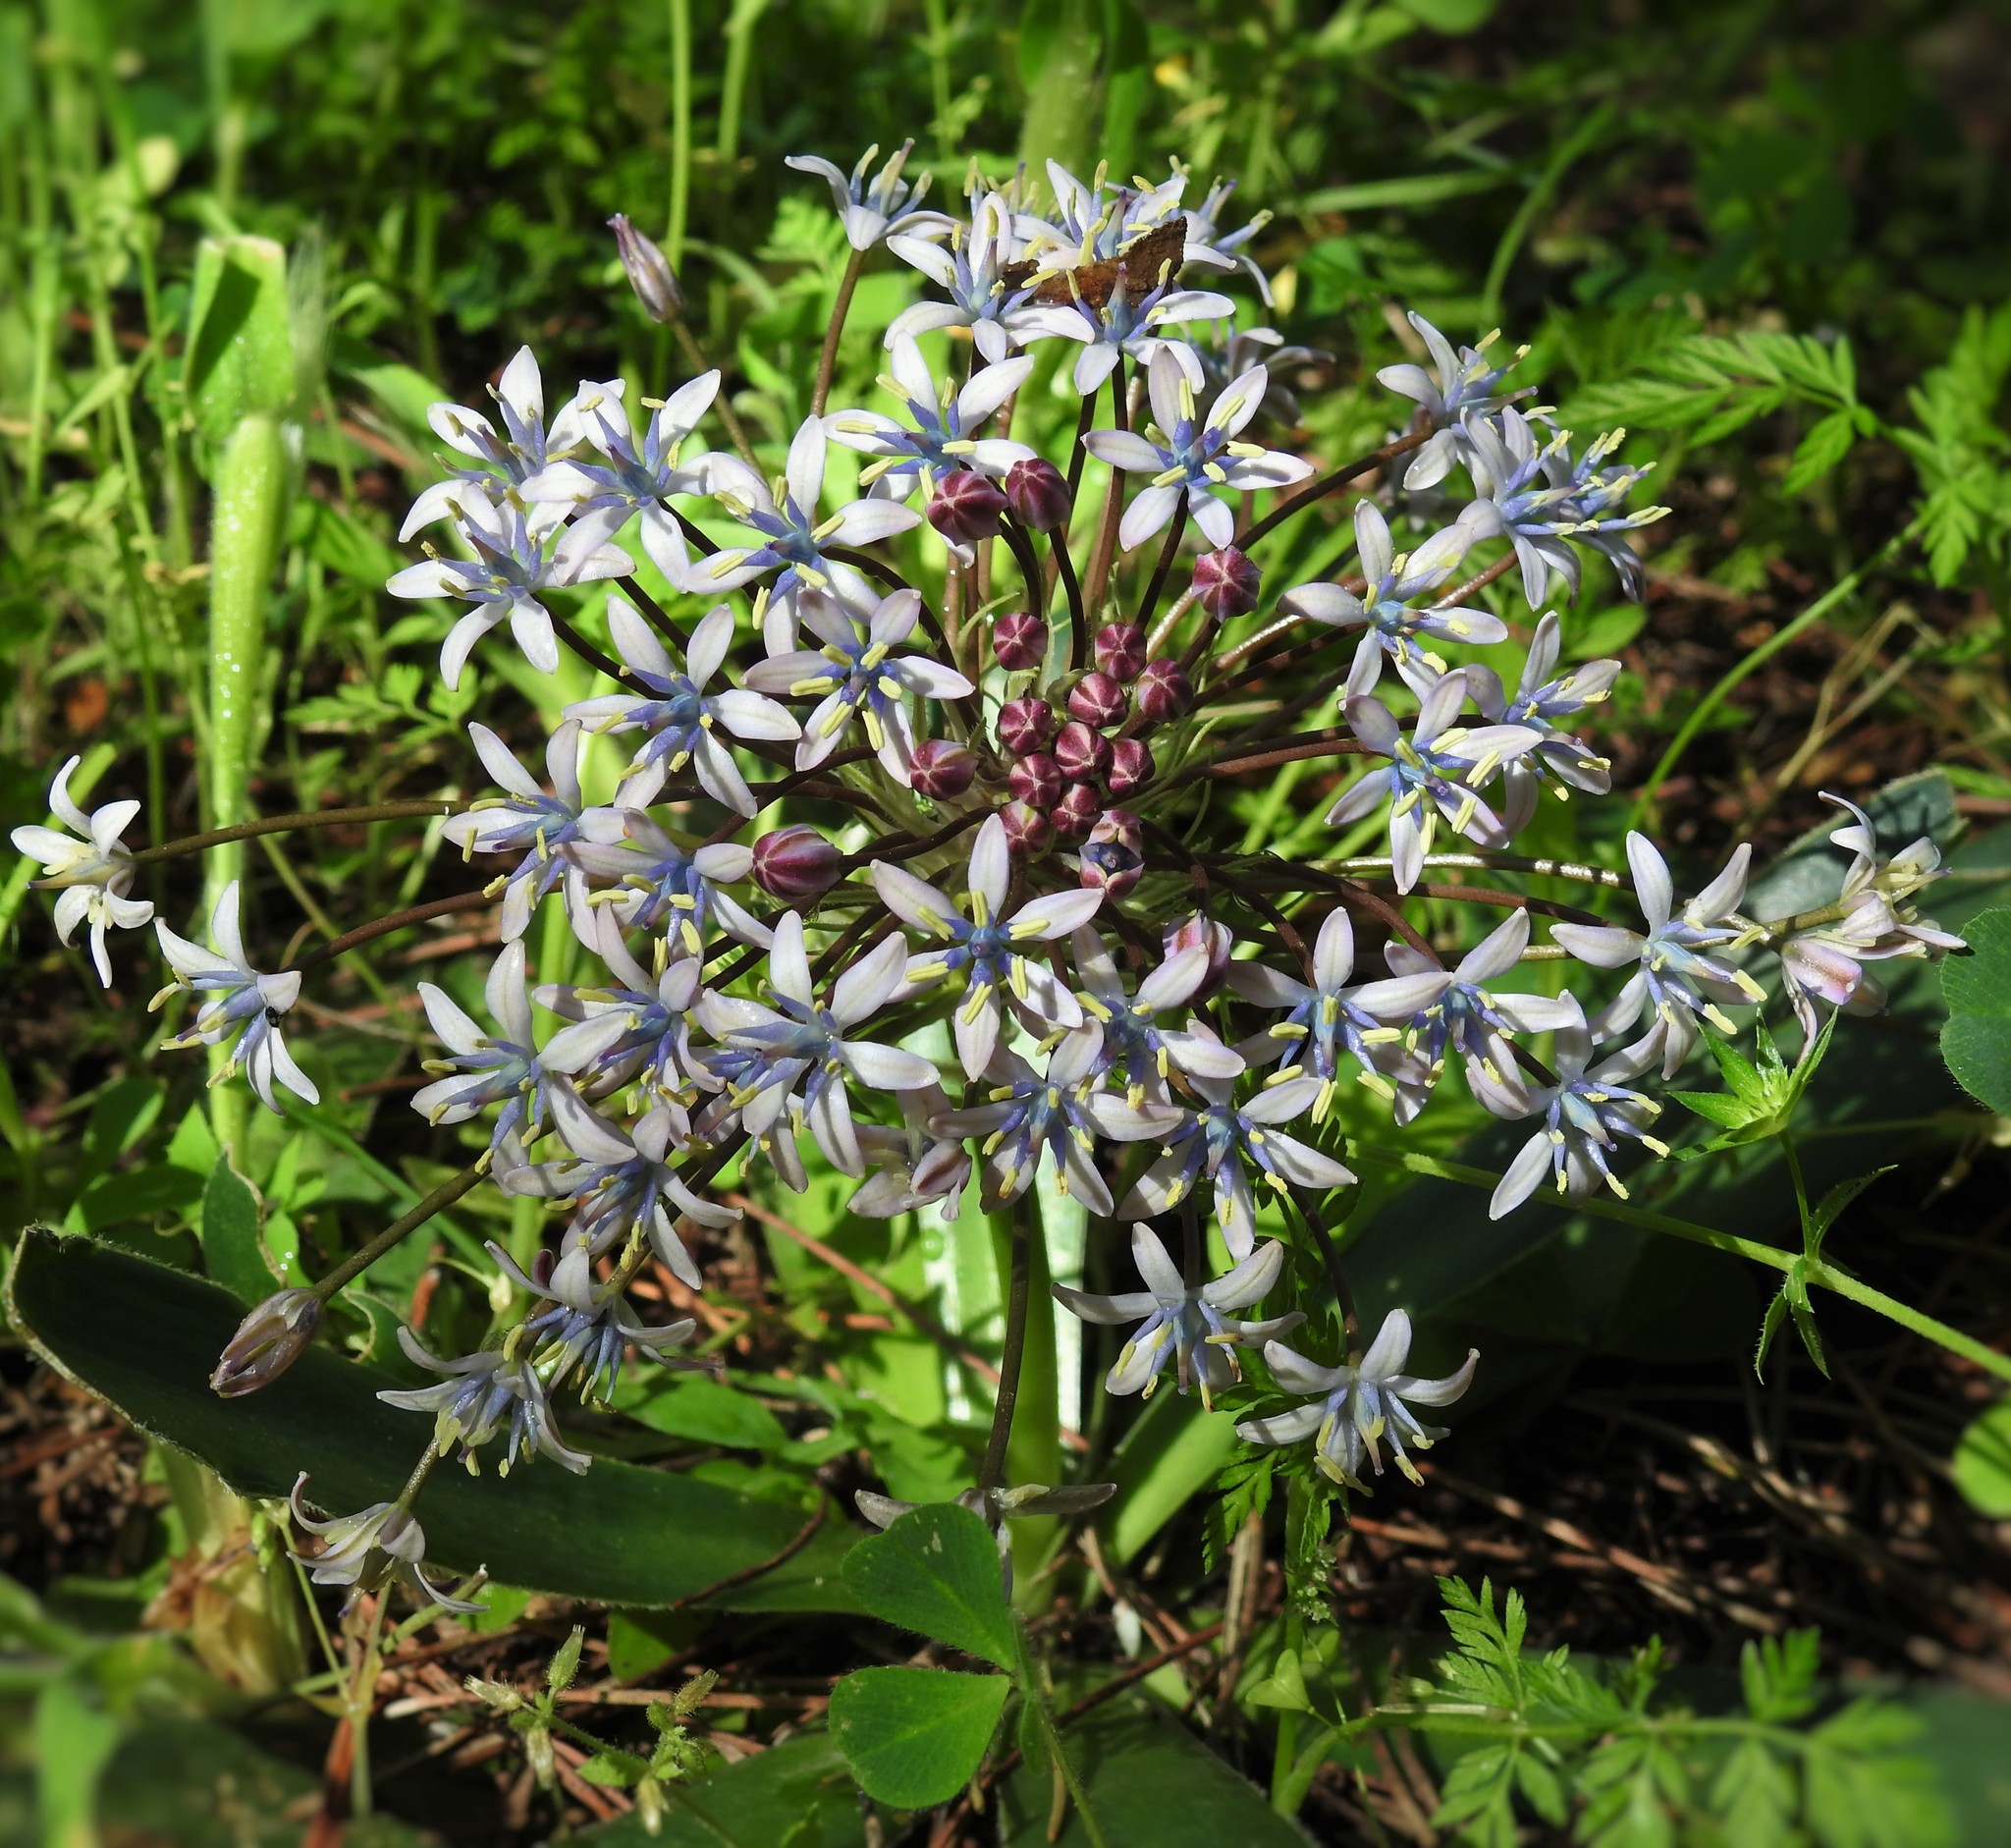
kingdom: Plantae
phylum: Tracheophyta
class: Liliopsida
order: Asparagales
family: Asparagaceae
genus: Scilla
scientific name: Scilla peruviana
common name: Portuguese squill
